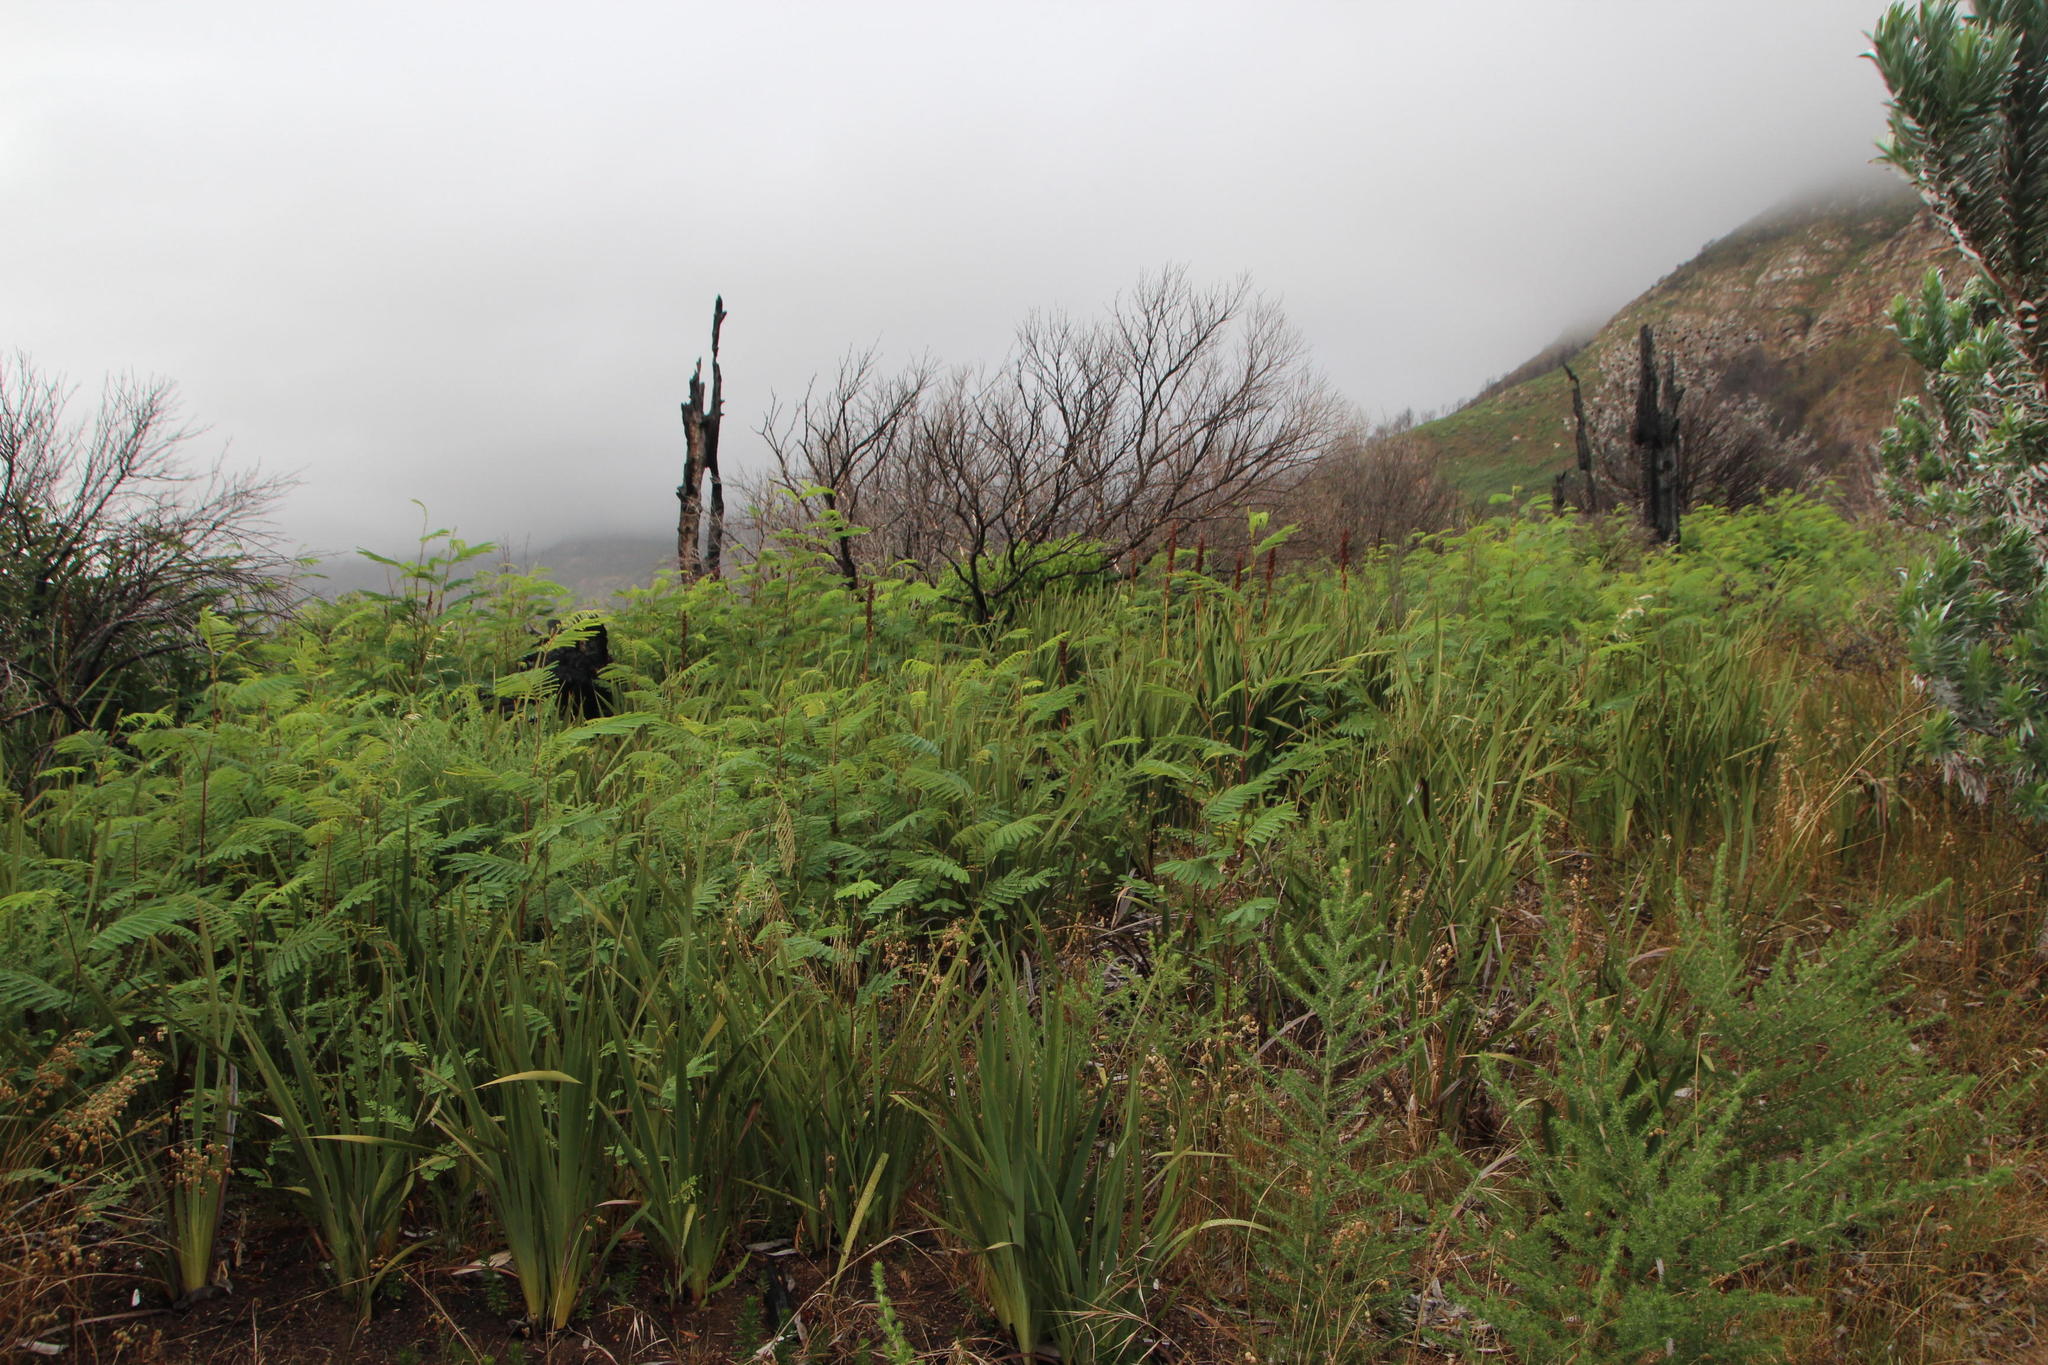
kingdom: Plantae
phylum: Tracheophyta
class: Magnoliopsida
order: Fabales
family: Fabaceae
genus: Aspalathus
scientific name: Aspalathus astroites
